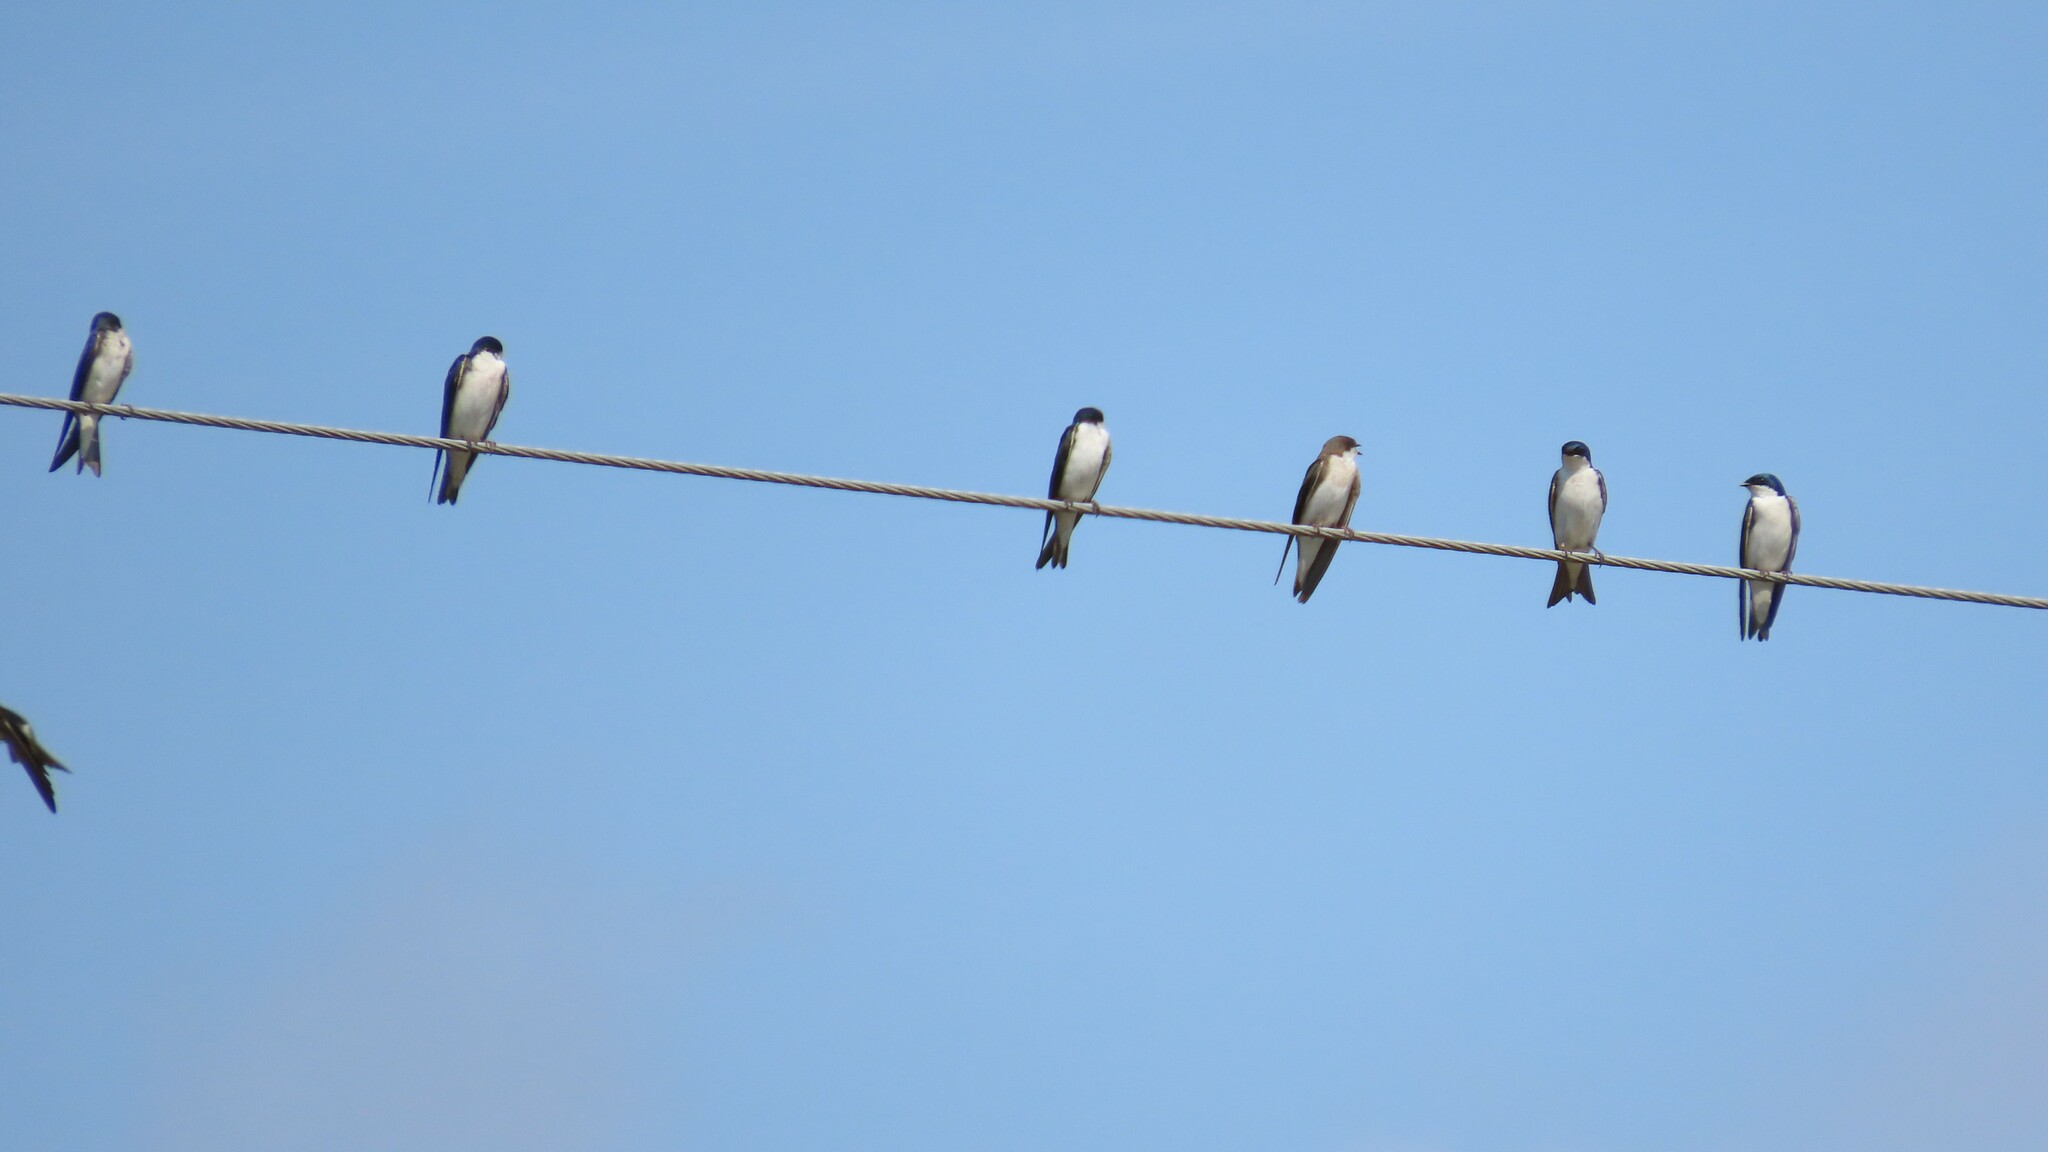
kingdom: Animalia
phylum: Chordata
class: Aves
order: Passeriformes
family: Hirundinidae
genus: Tachycineta
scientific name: Tachycineta bicolor
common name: Tree swallow
